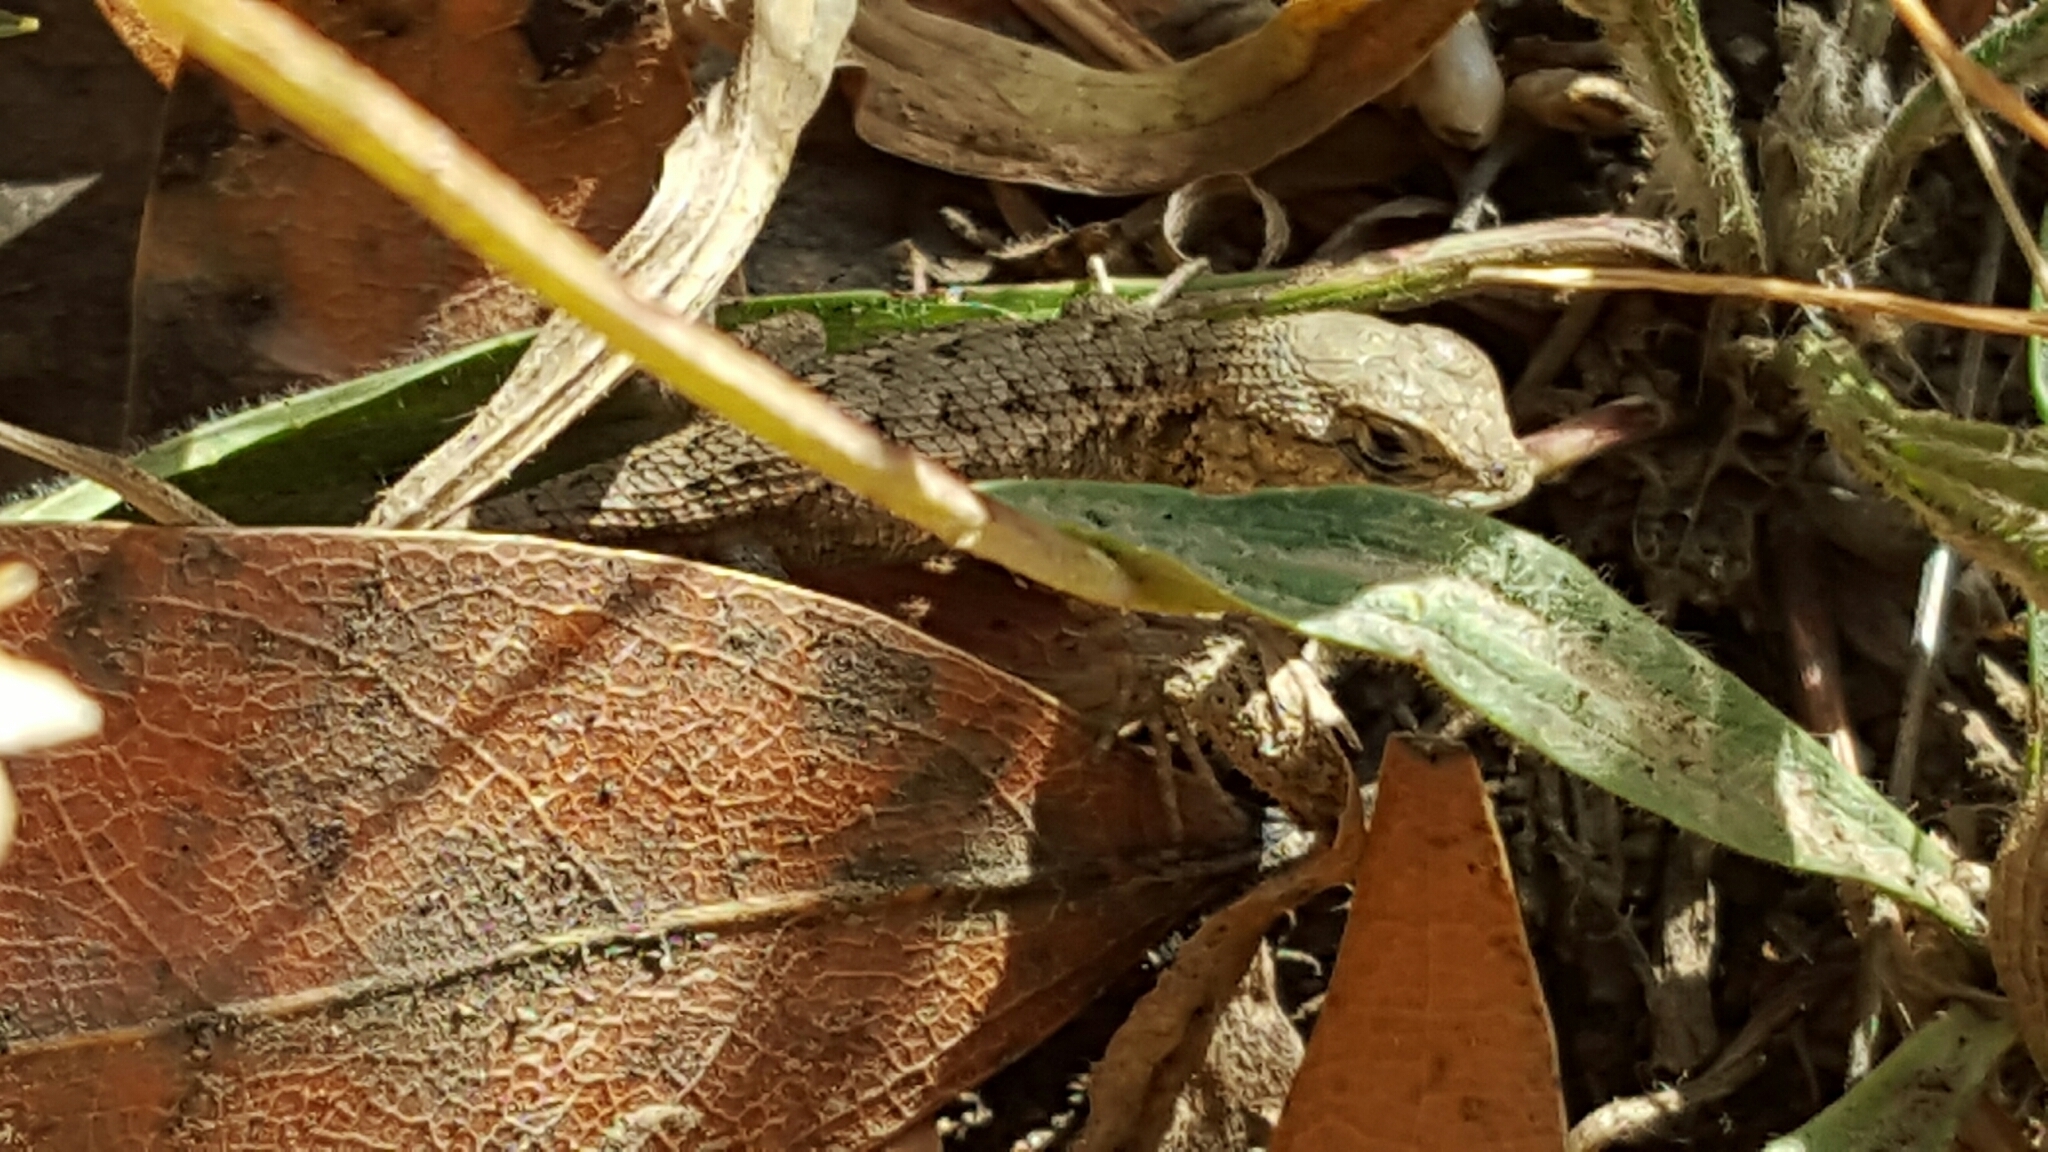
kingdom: Animalia
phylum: Chordata
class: Squamata
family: Phrynosomatidae
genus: Sceloporus
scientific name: Sceloporus occidentalis
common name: Western fence lizard
